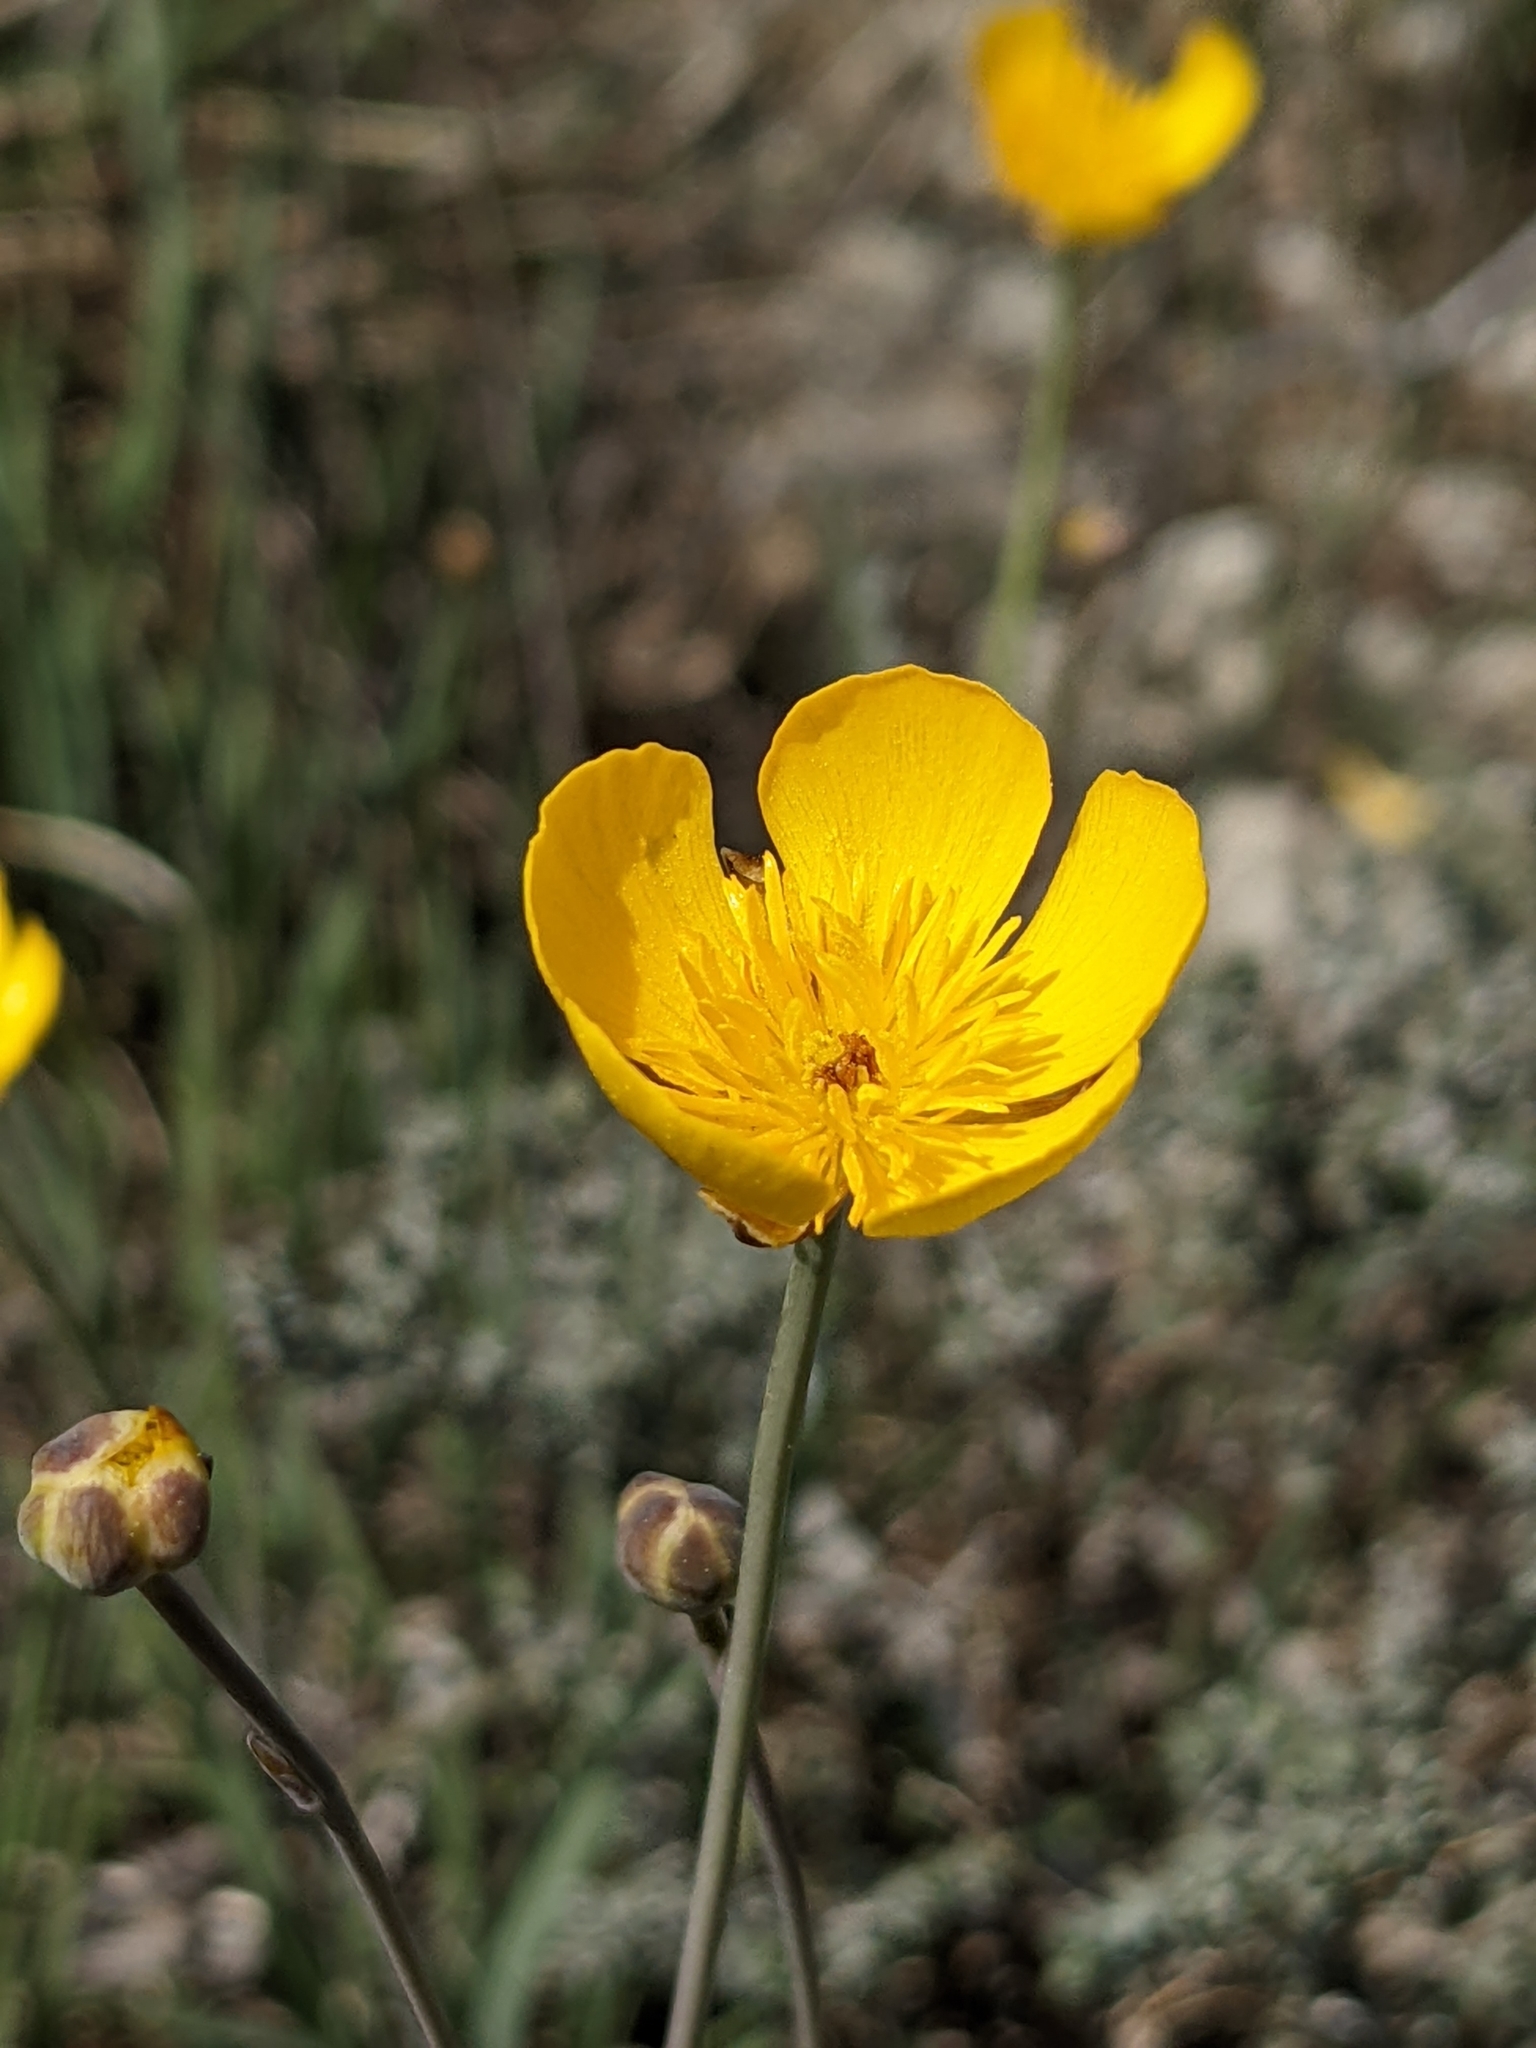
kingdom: Plantae
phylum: Tracheophyta
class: Magnoliopsida
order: Ranunculales
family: Ranunculaceae
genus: Ranunculus
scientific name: Ranunculus gramineus
